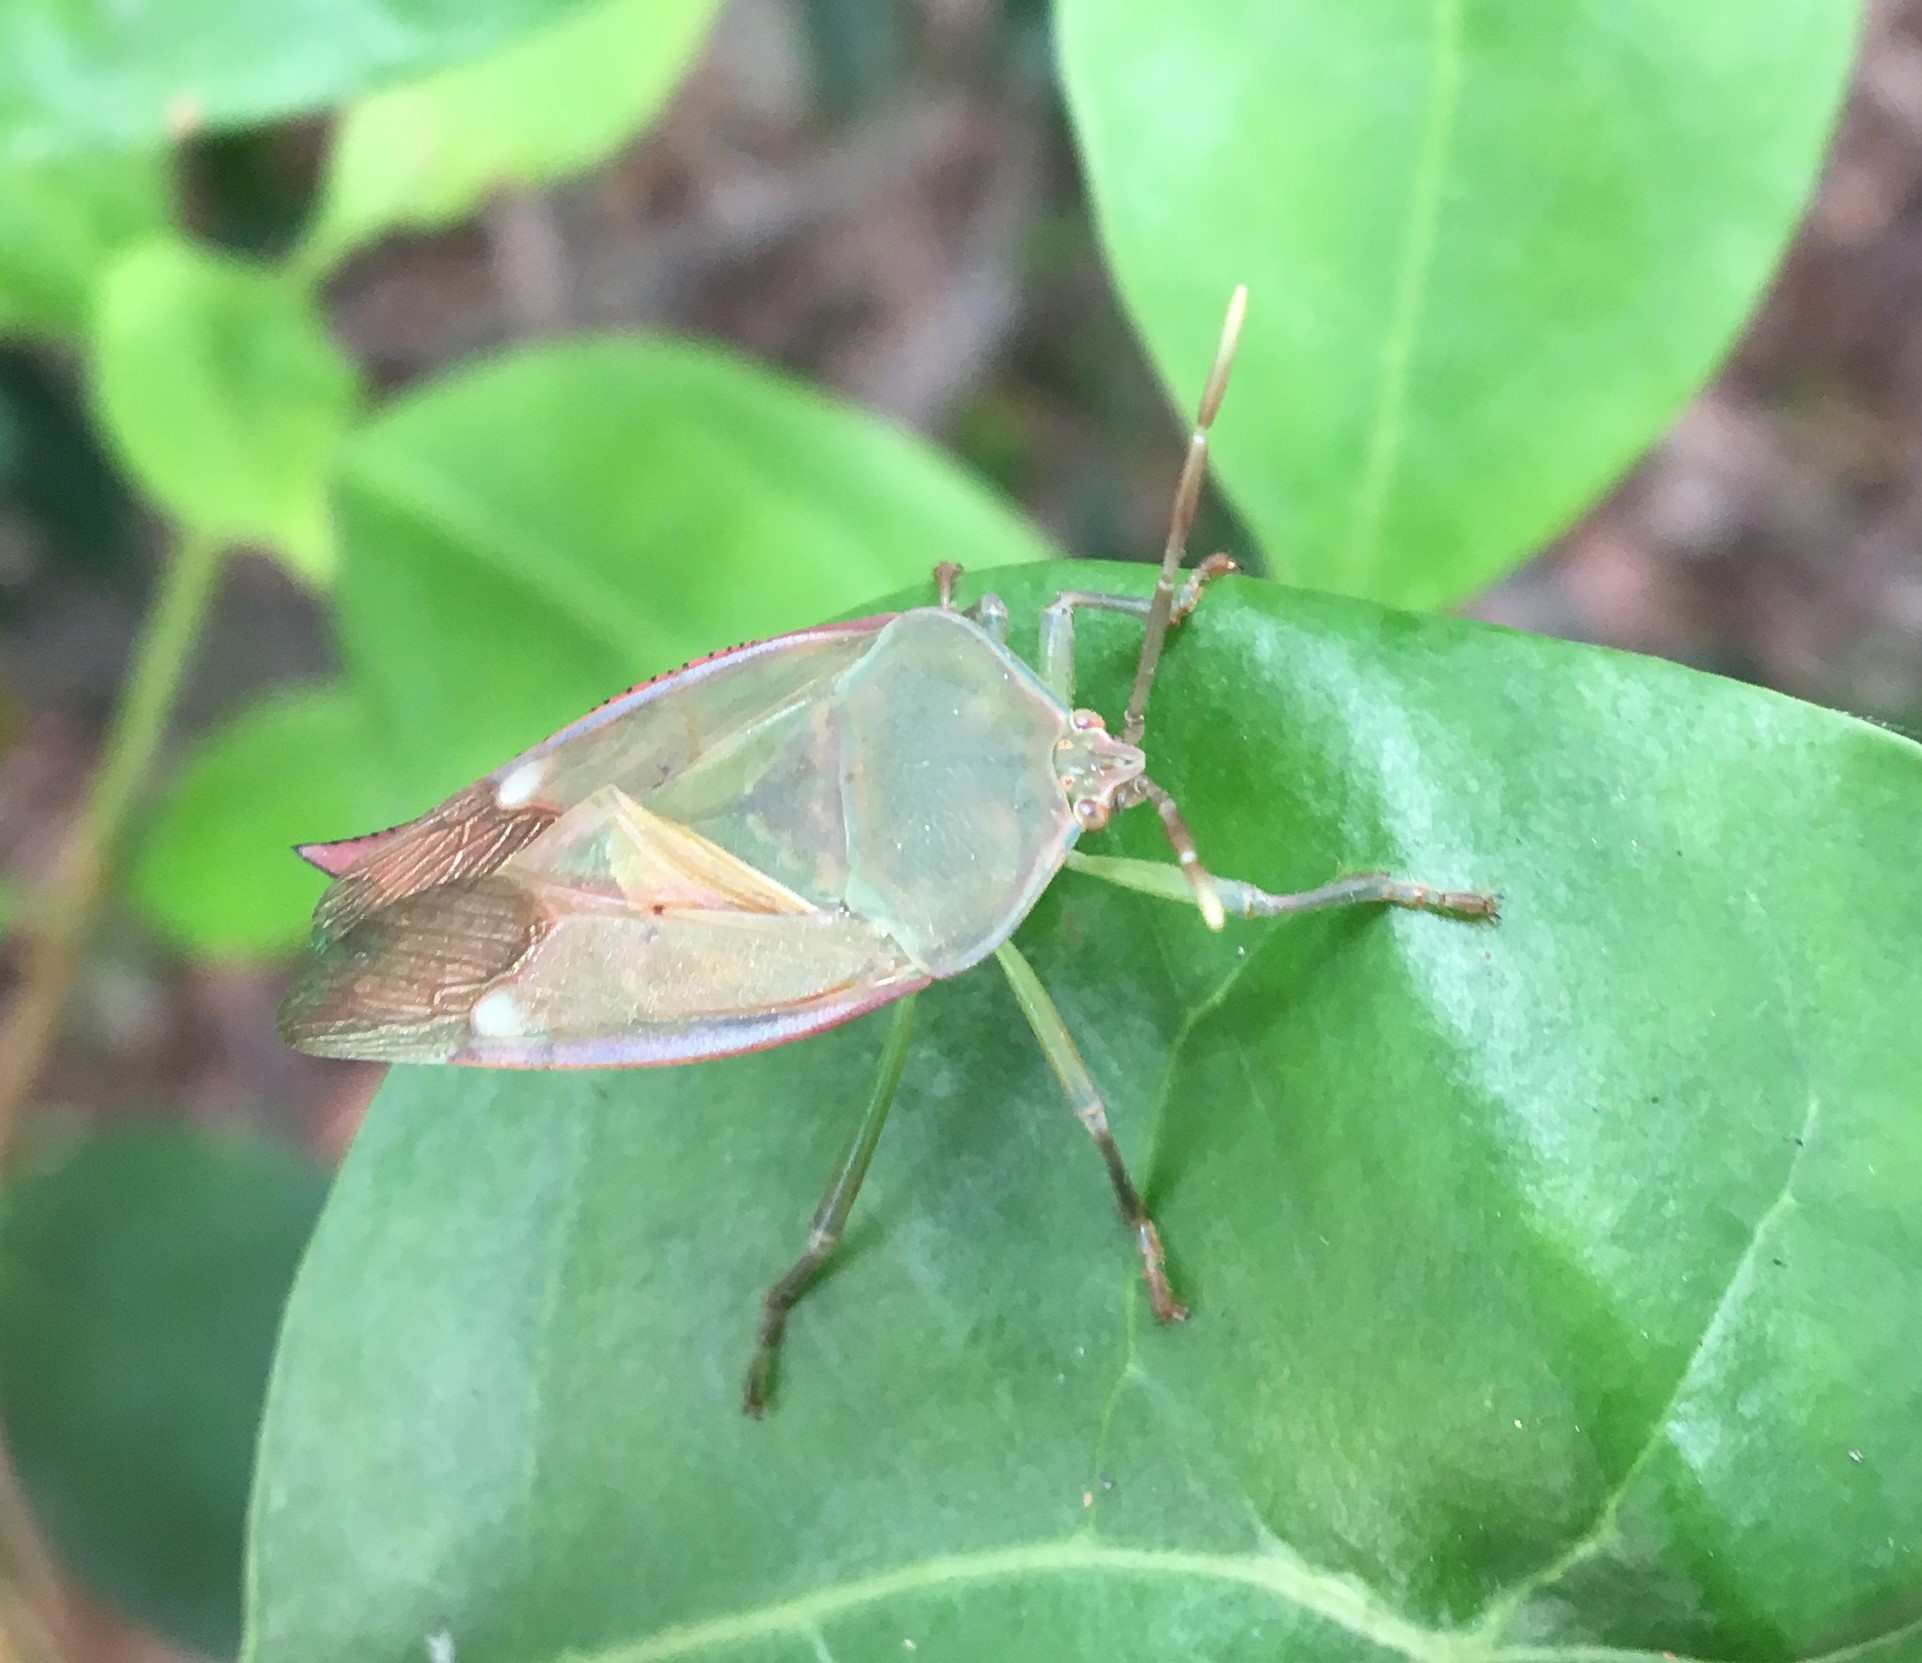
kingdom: Animalia
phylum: Arthropoda
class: Insecta
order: Hemiptera
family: Tessaratomidae
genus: Lyramorpha
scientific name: Lyramorpha rosea
